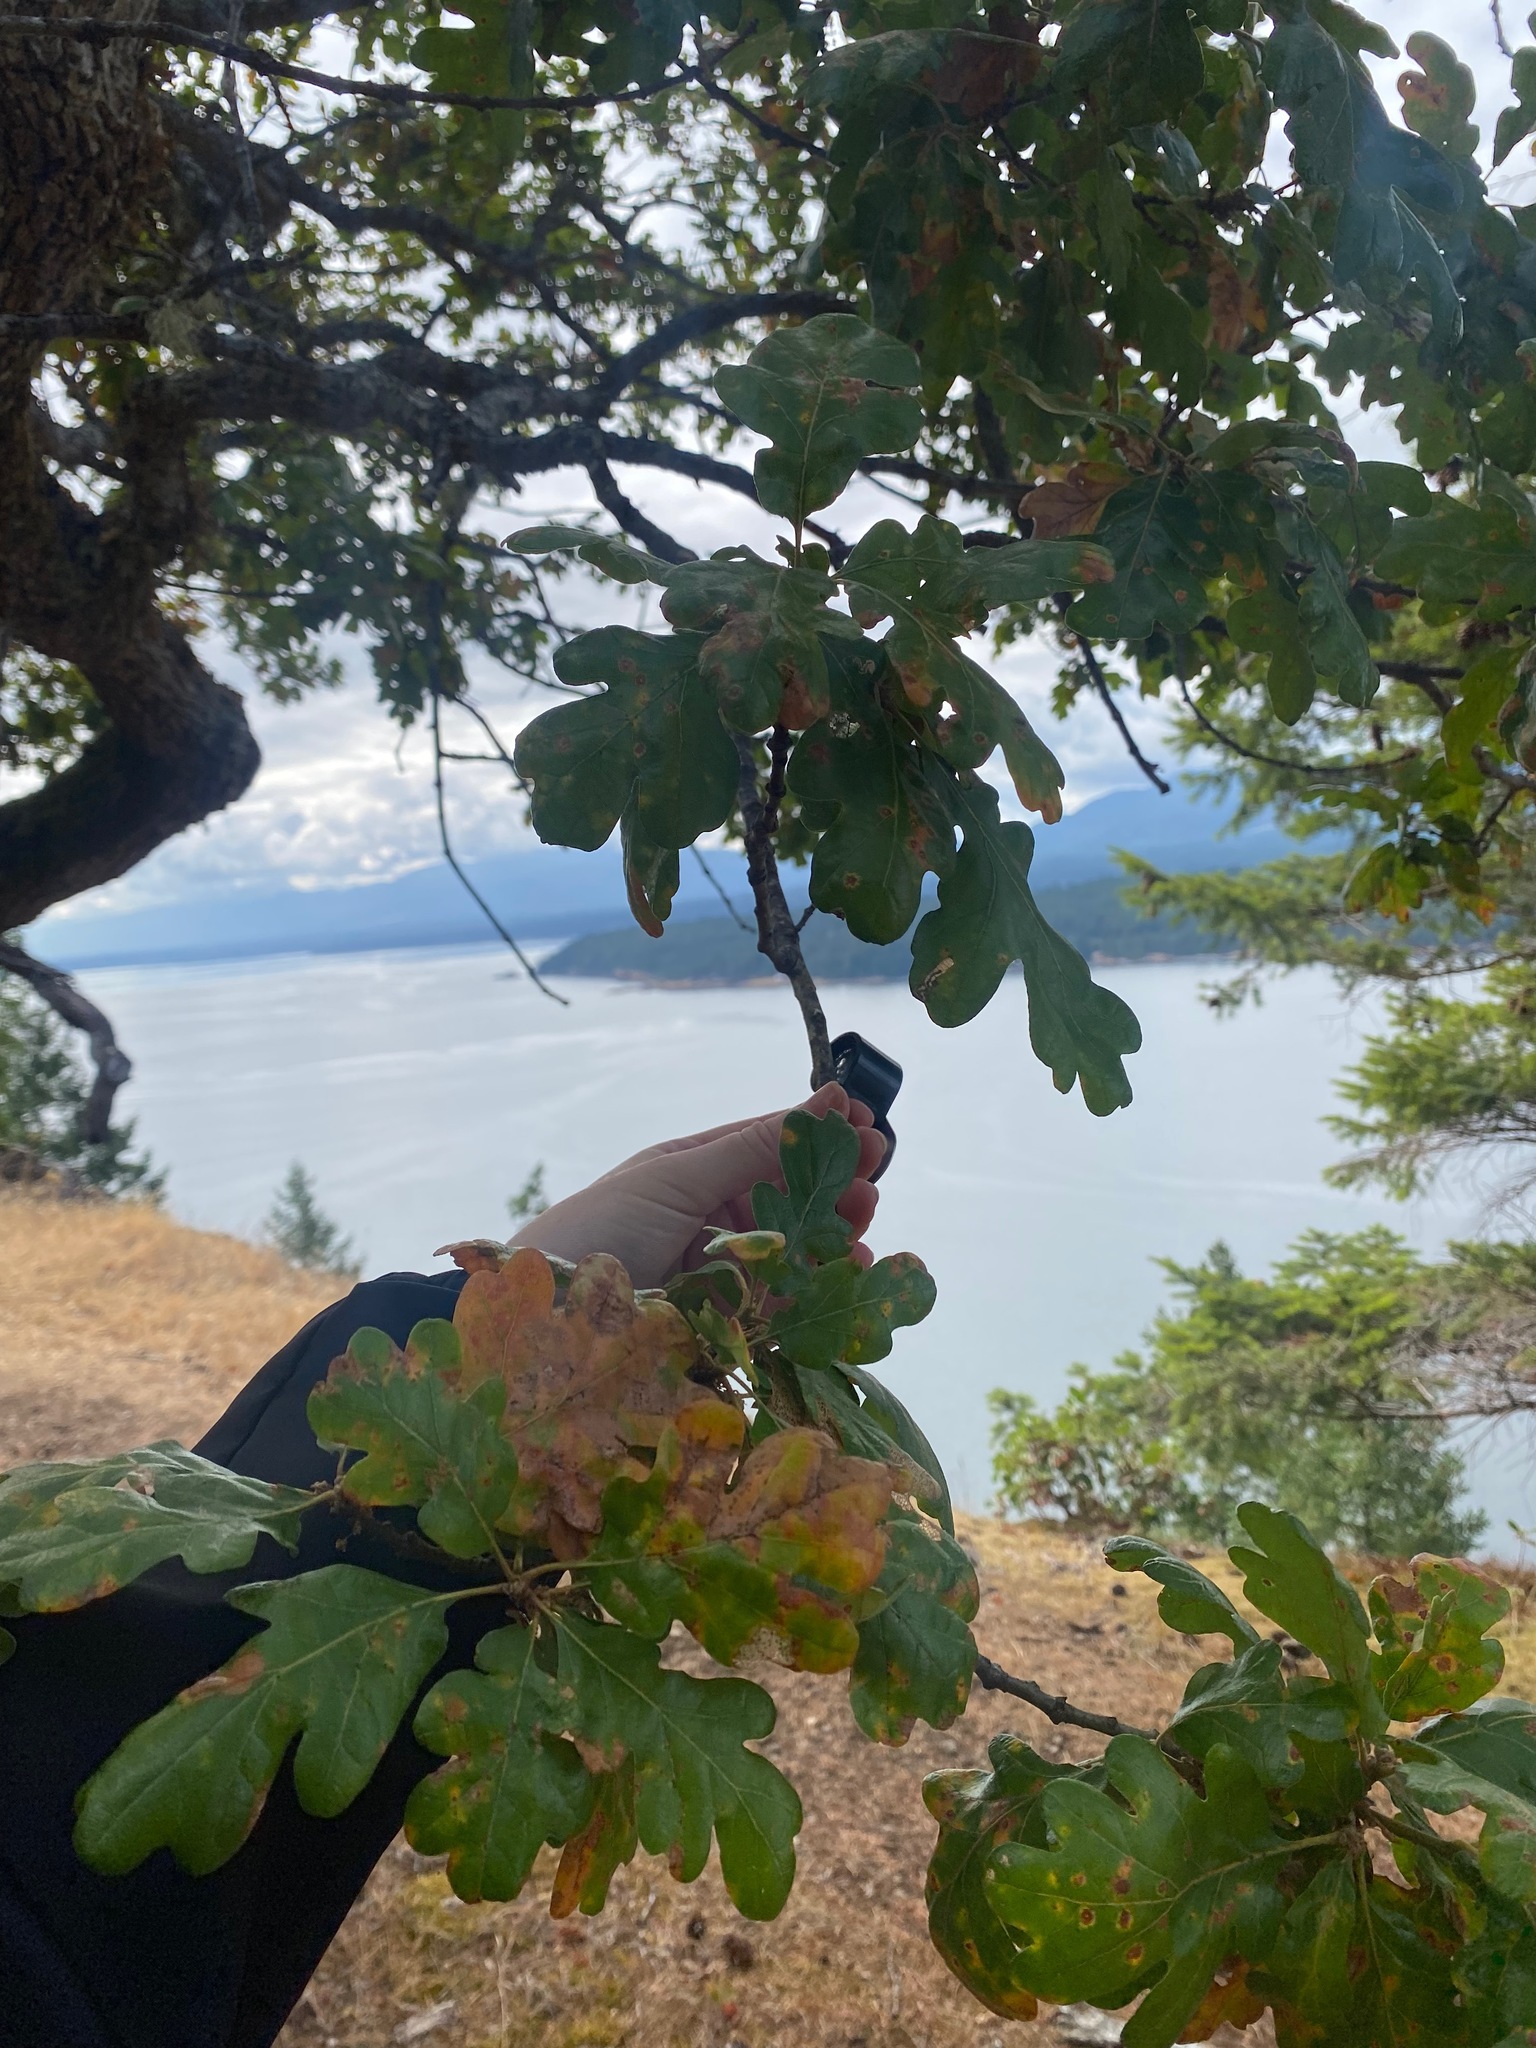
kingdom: Plantae
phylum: Tracheophyta
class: Magnoliopsida
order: Fagales
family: Fagaceae
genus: Quercus
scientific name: Quercus garryana
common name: Garry oak
